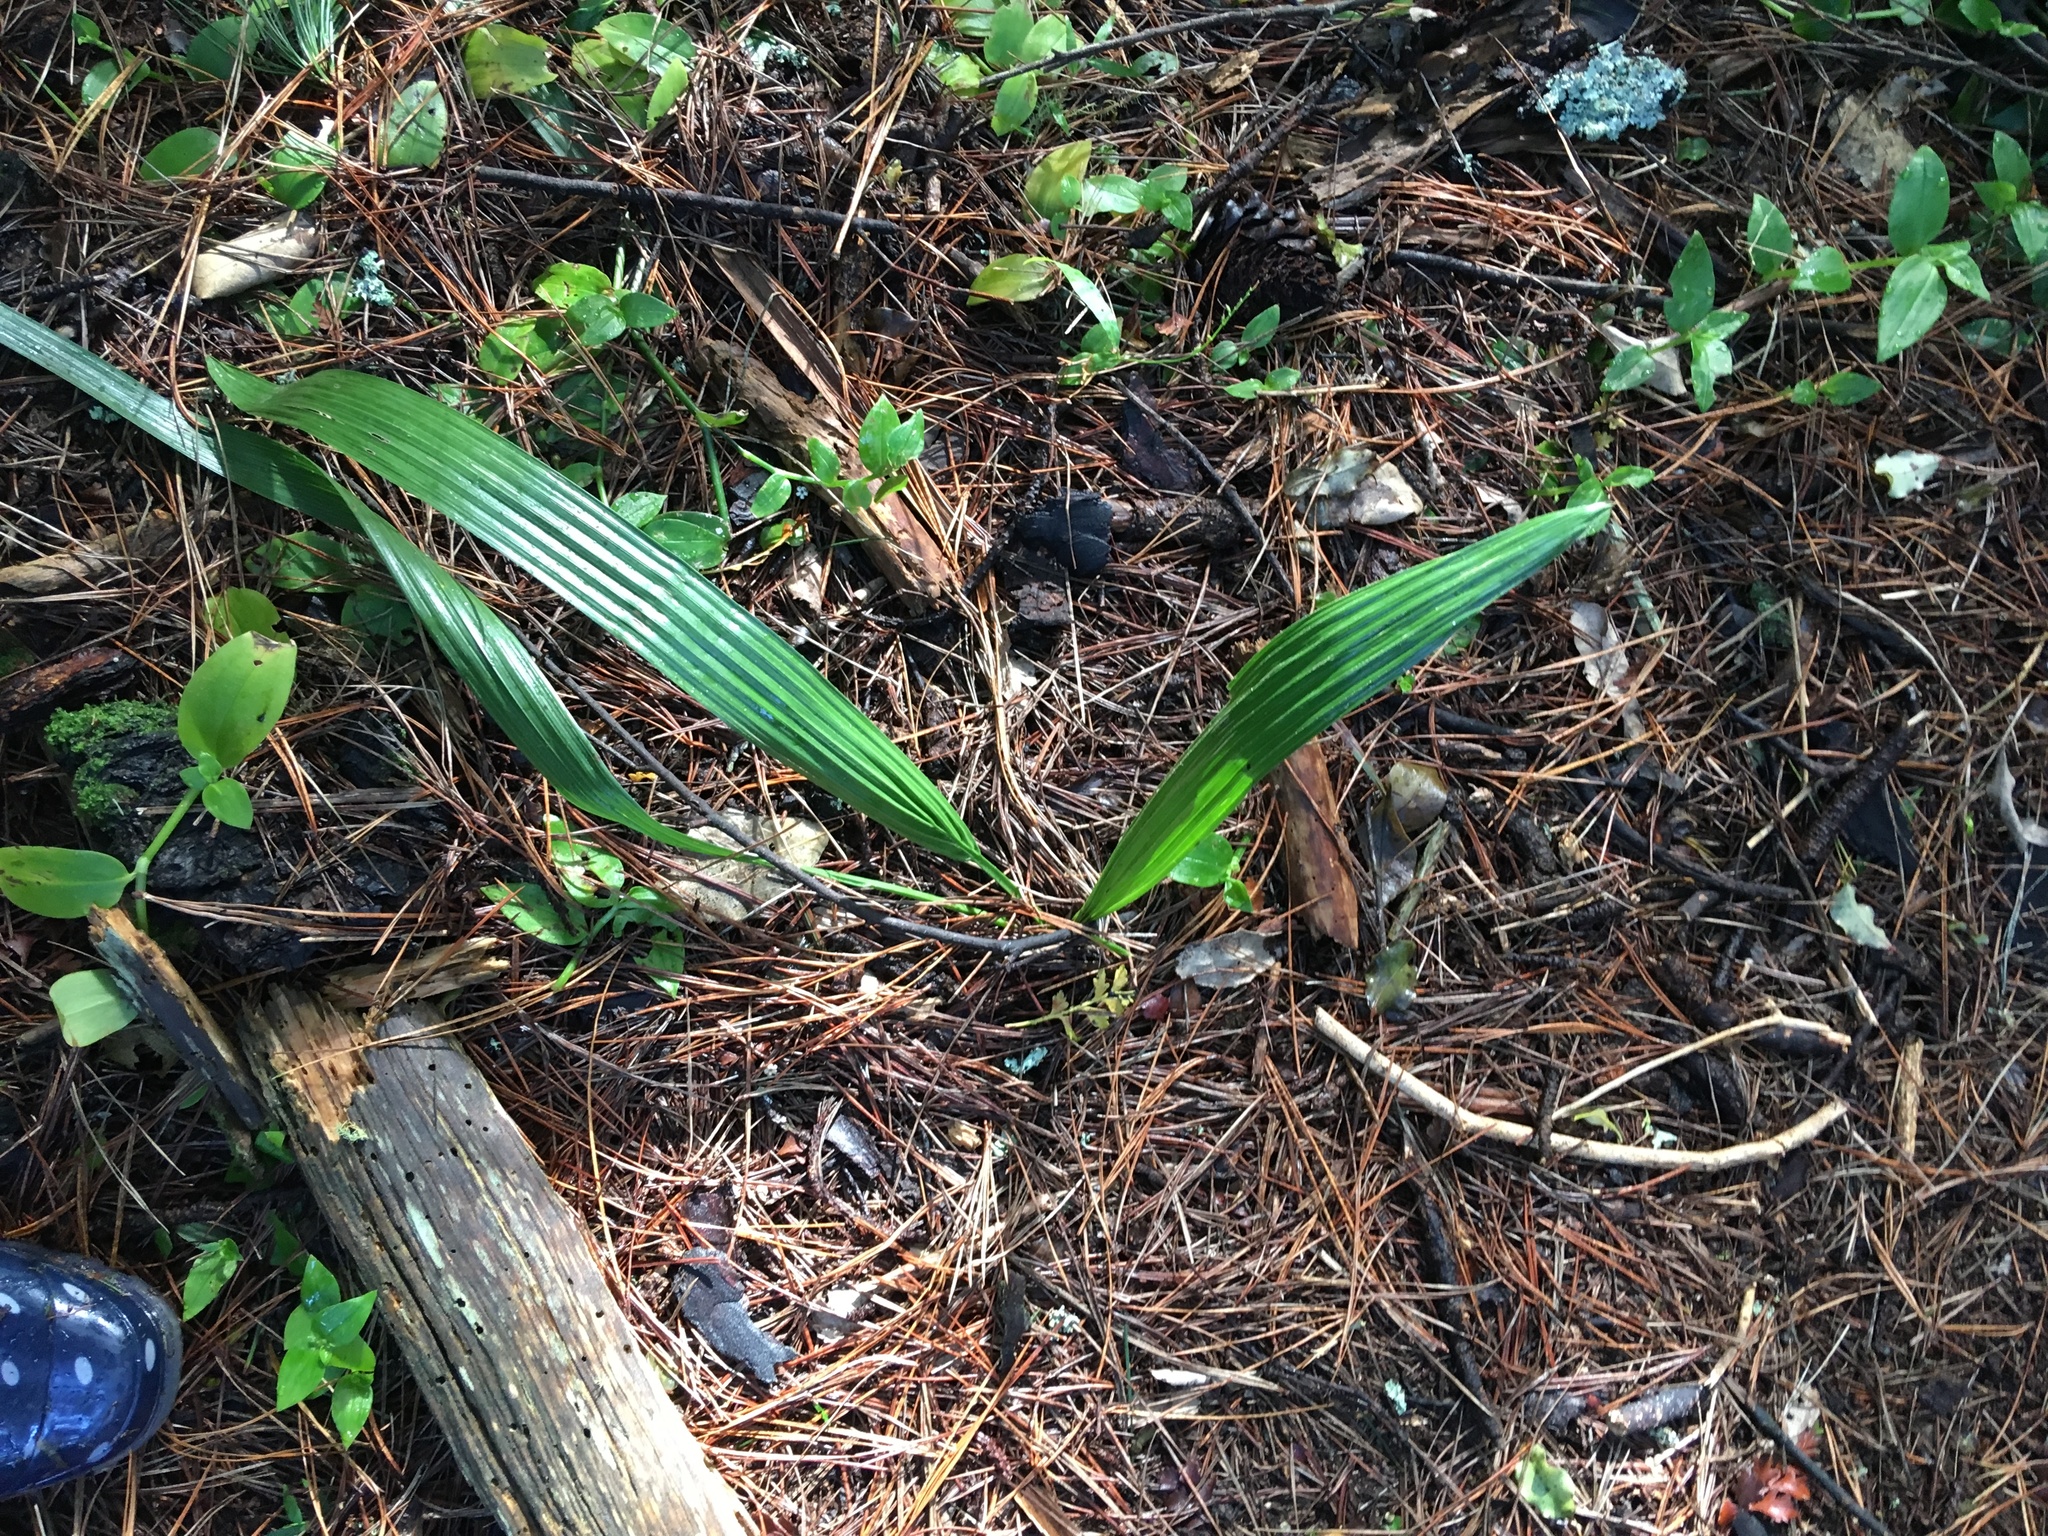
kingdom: Plantae
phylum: Tracheophyta
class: Liliopsida
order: Arecales
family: Arecaceae
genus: Phoenix
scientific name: Phoenix canariensis
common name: Canary island date palm
